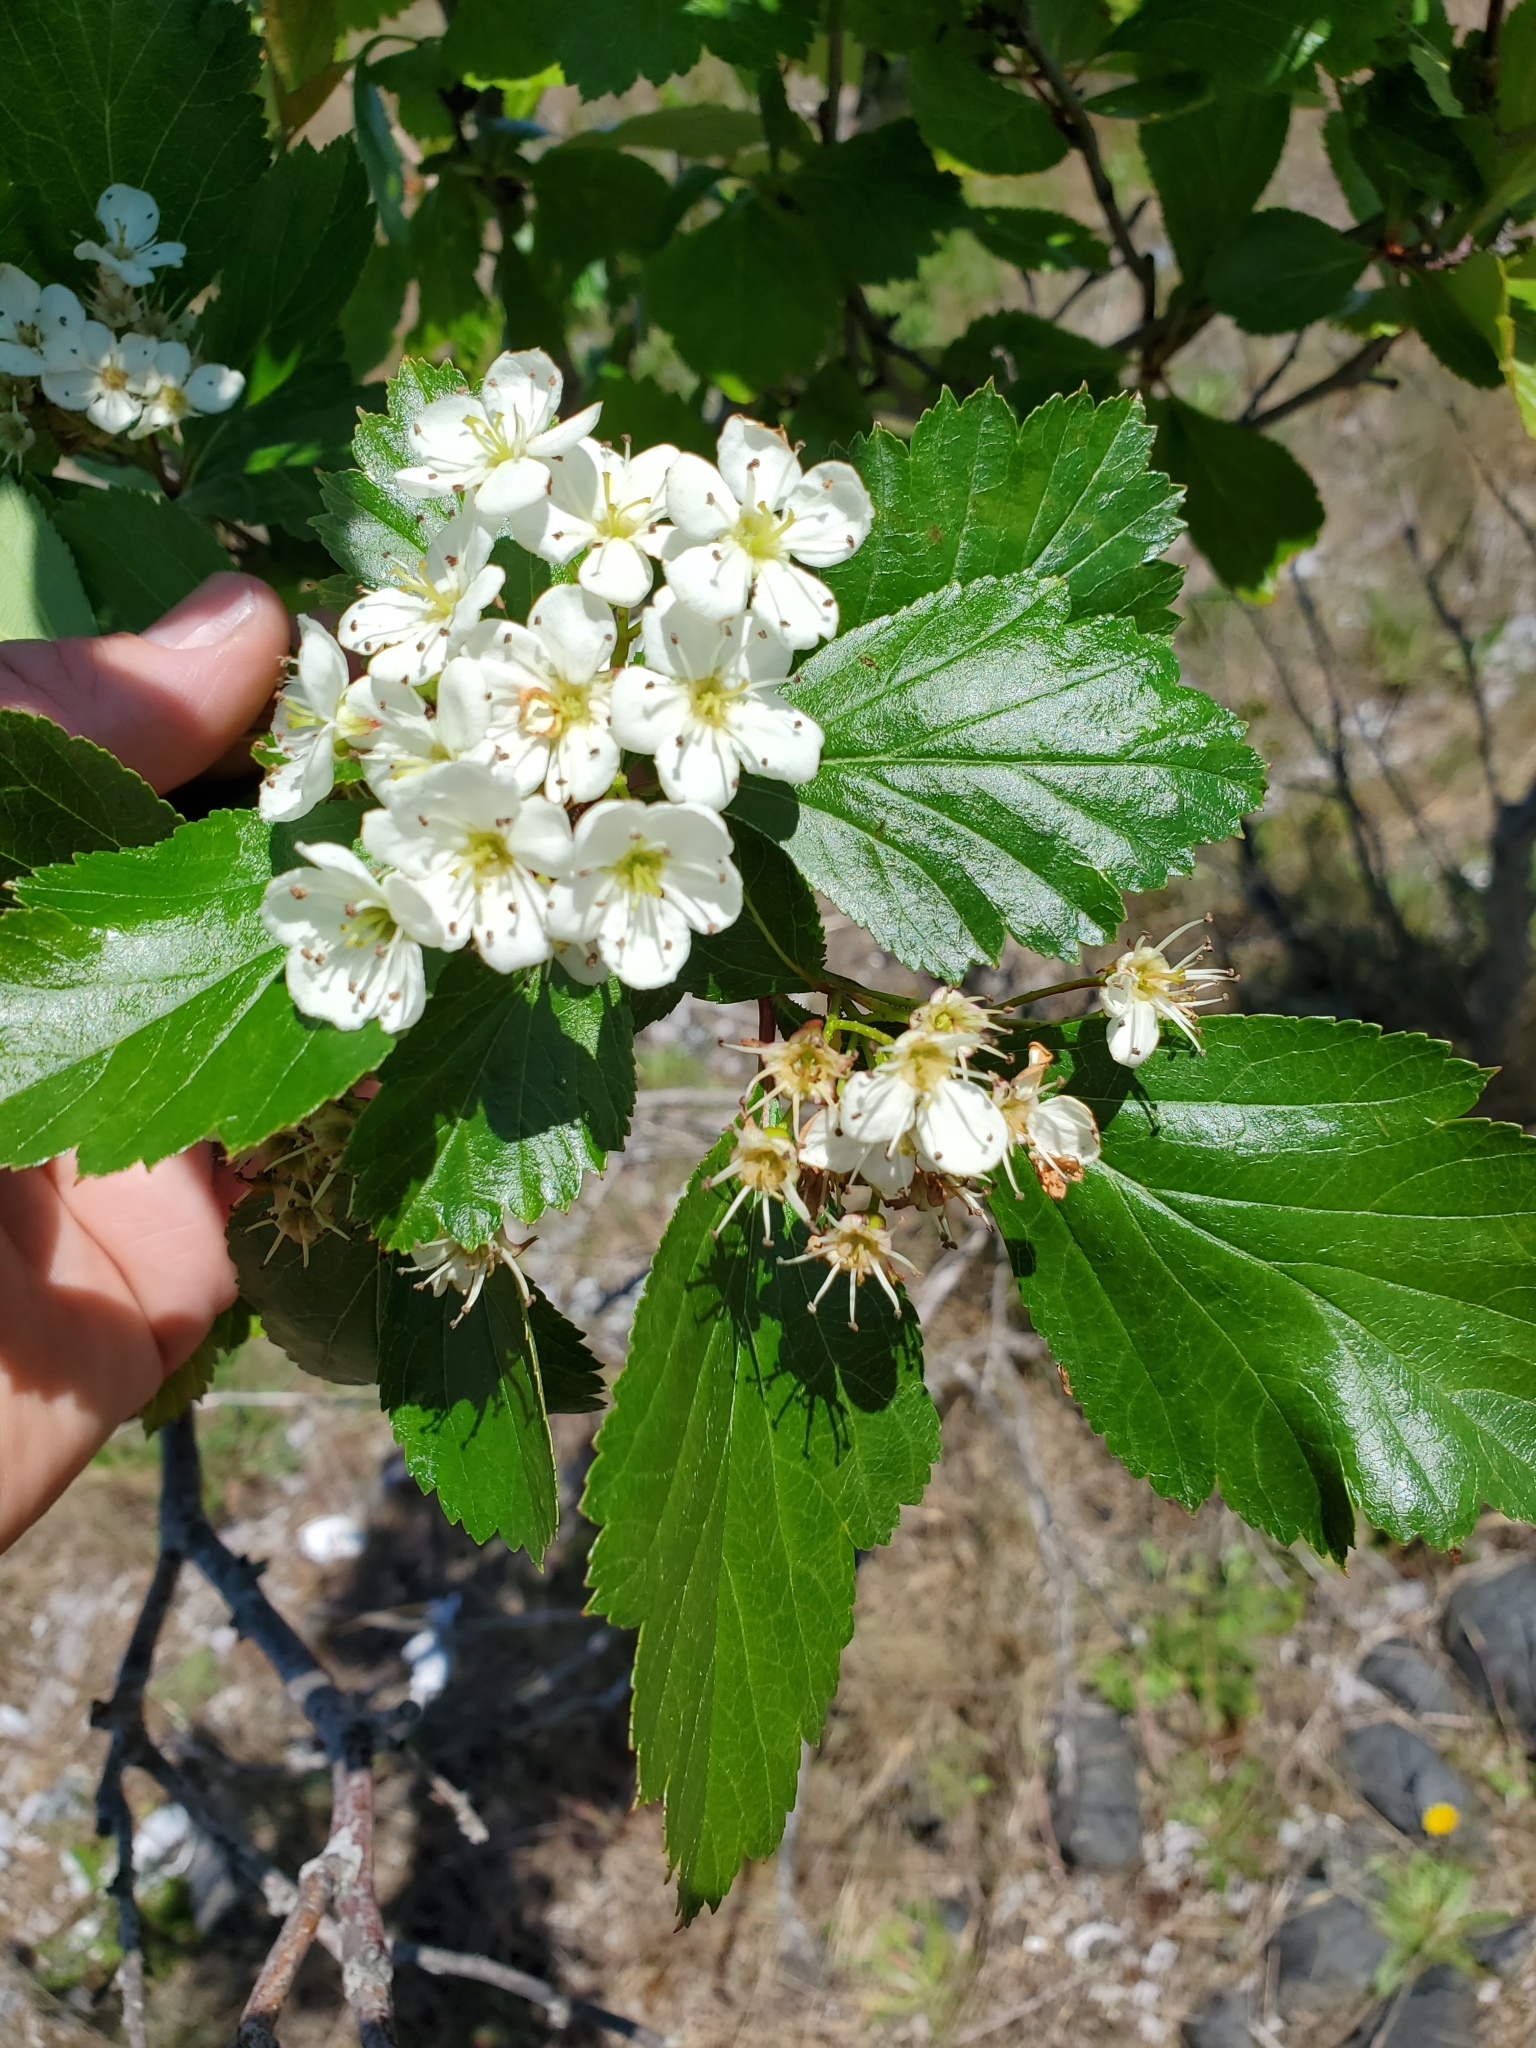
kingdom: Plantae
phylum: Tracheophyta
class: Magnoliopsida
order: Rosales
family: Rosaceae
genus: Crataegus
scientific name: Crataegus douglasii
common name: Black hawthorn
